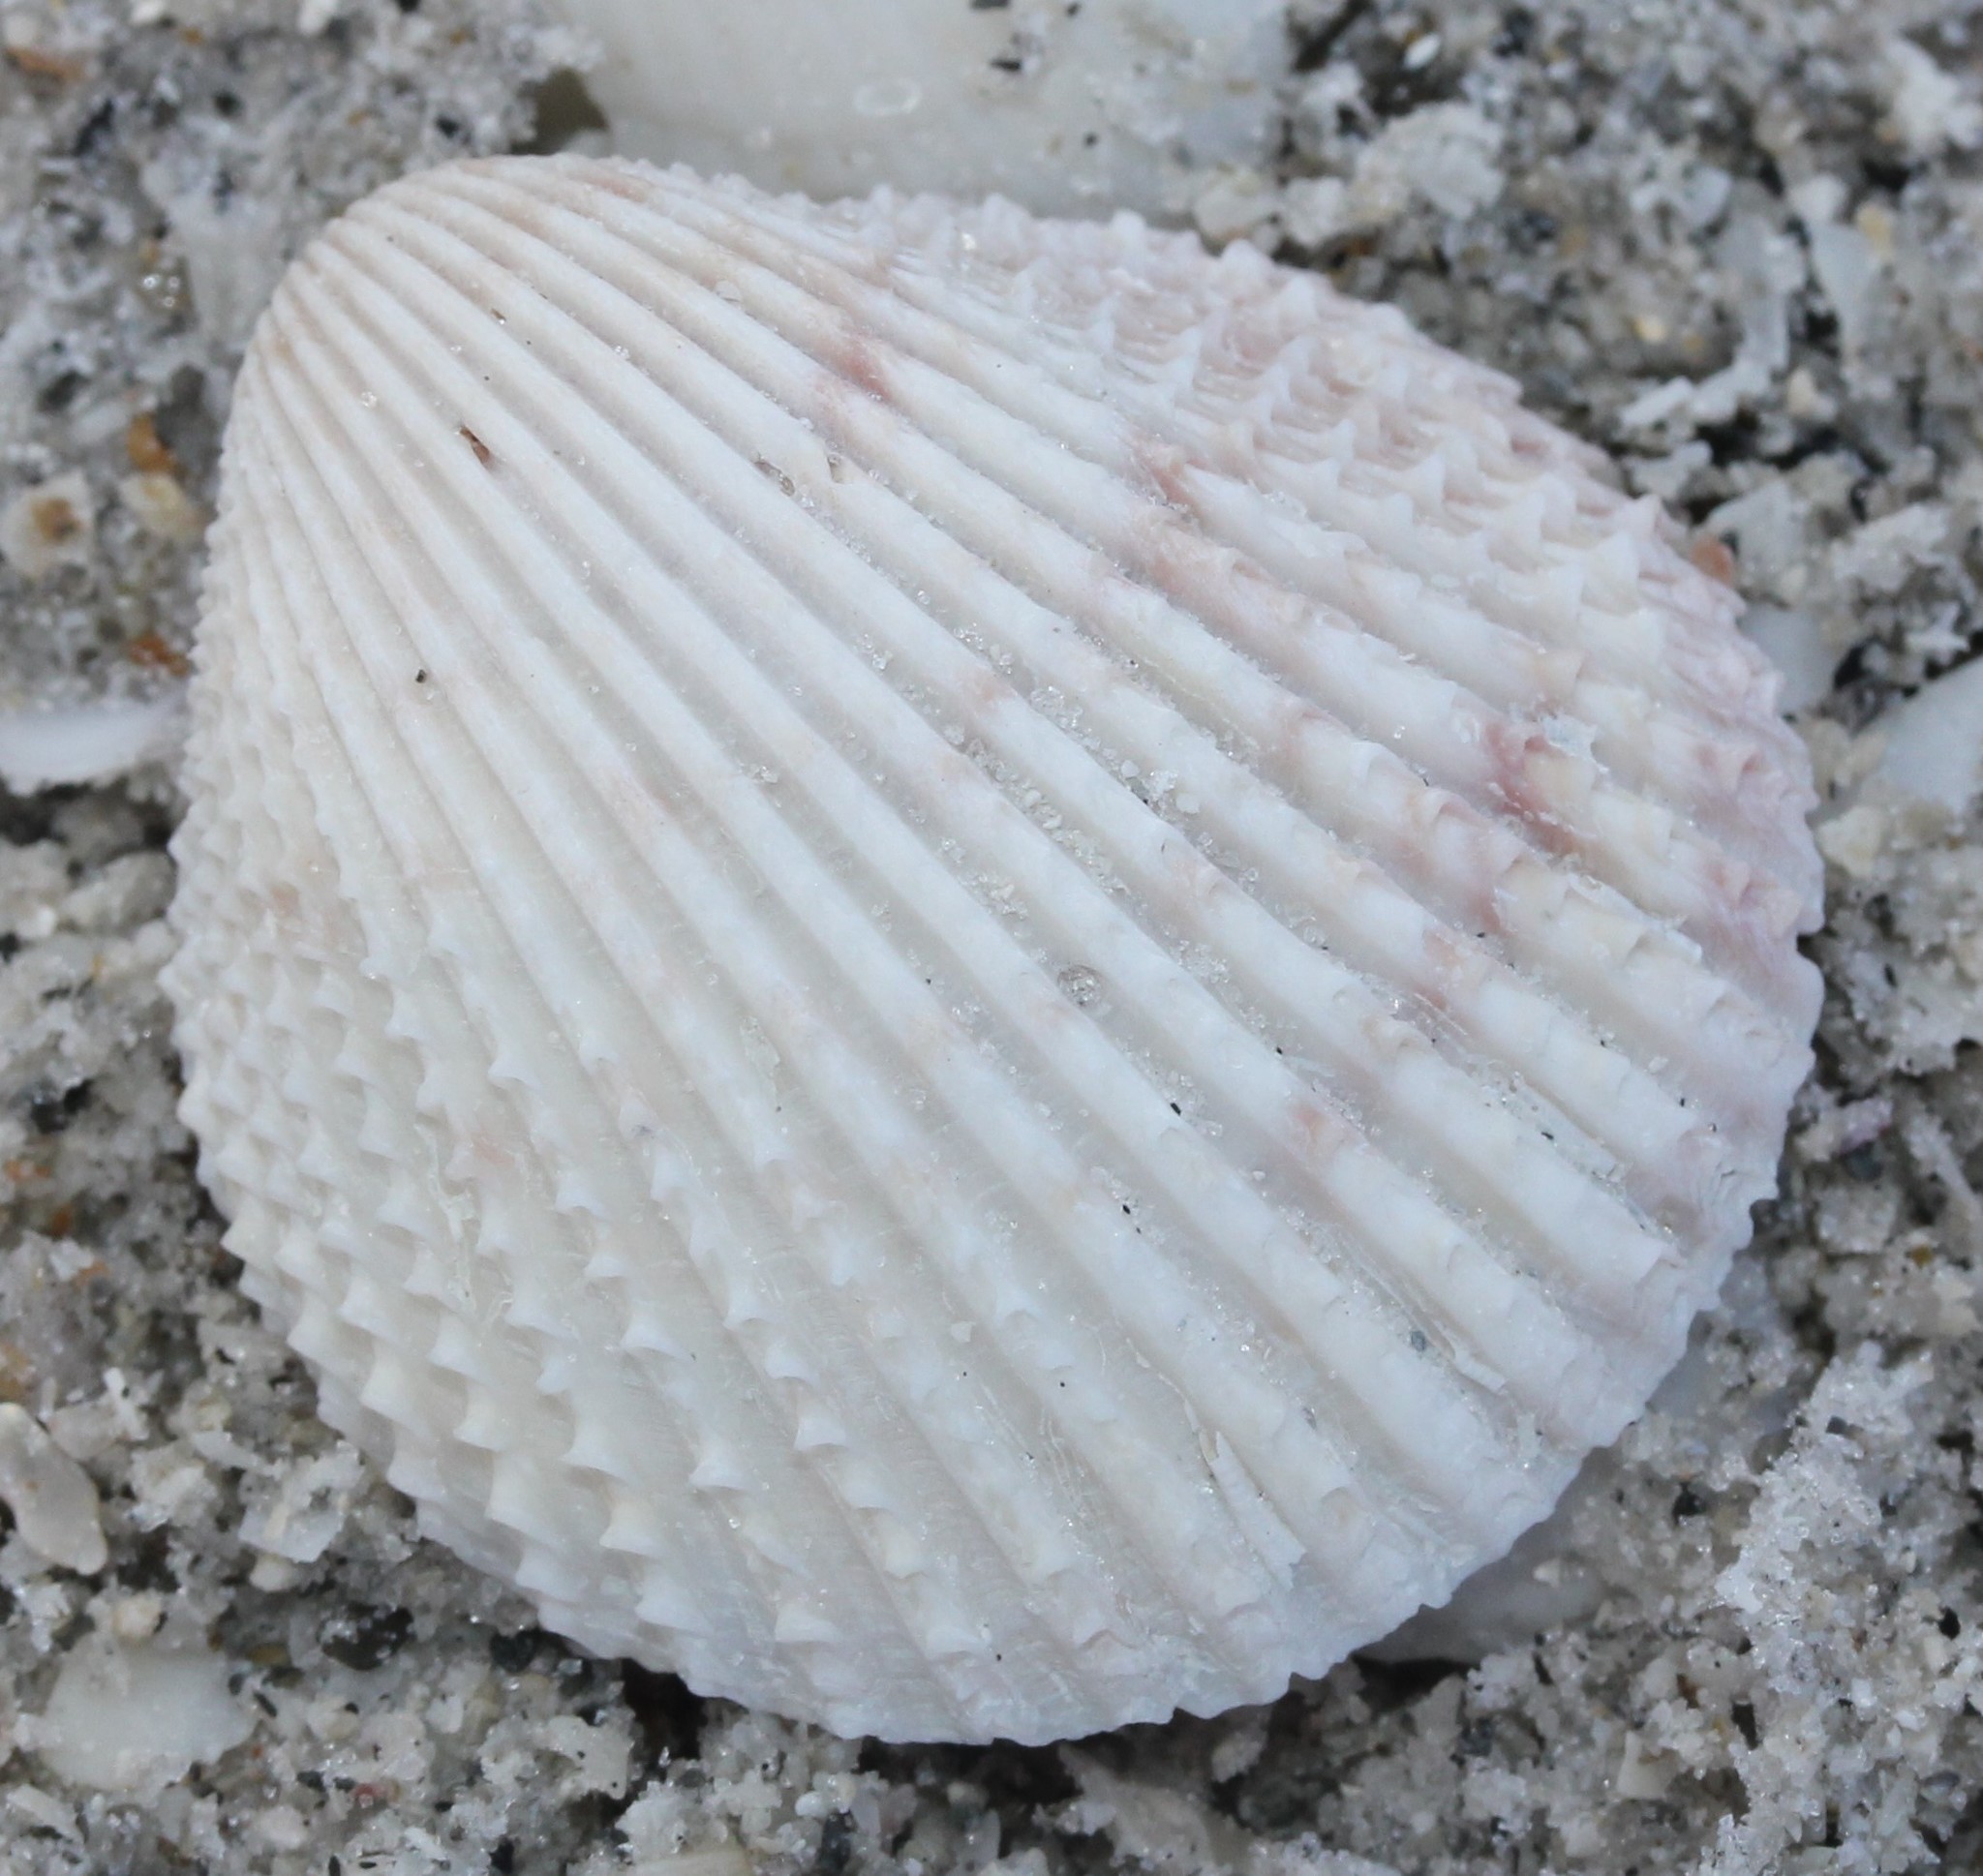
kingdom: Animalia
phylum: Mollusca
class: Bivalvia
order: Cardiida
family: Cardiidae
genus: Trachycardium
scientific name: Trachycardium egmontianum
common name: Florida pricklycockle
